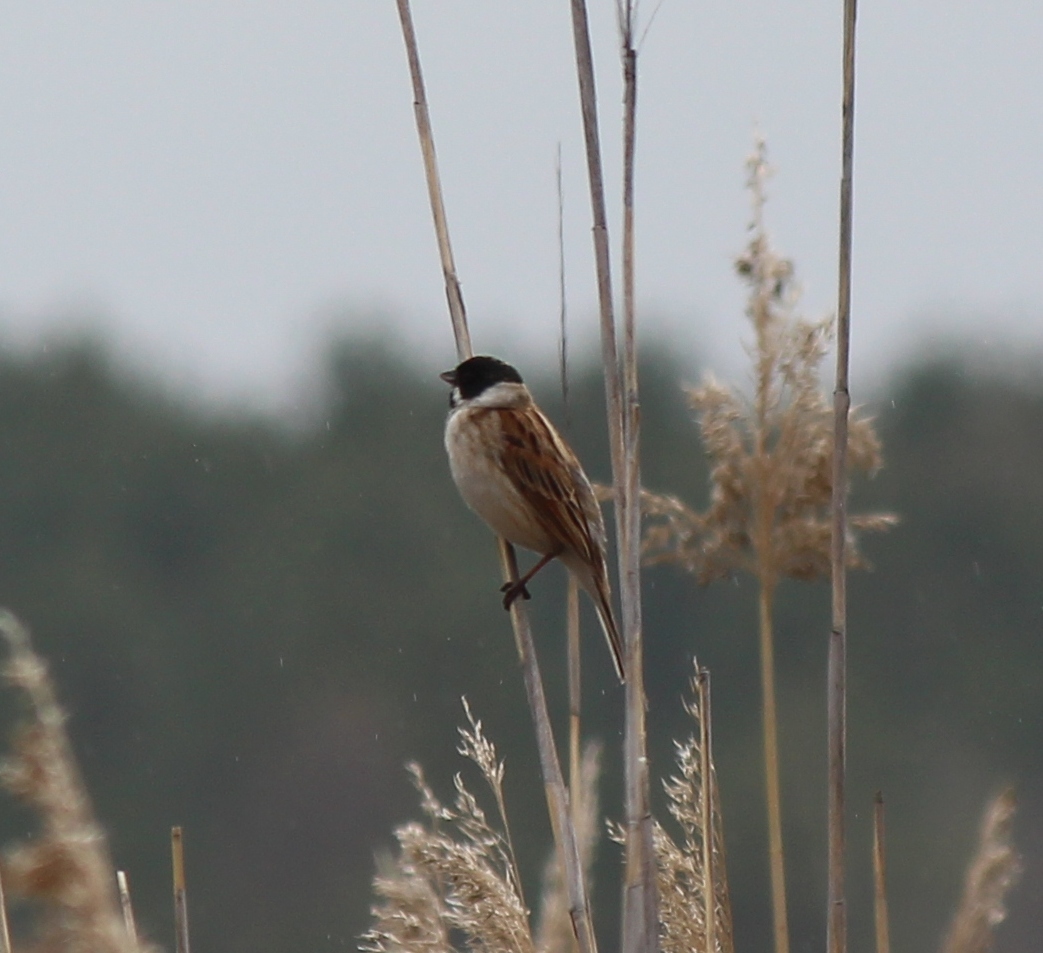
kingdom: Animalia
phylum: Chordata
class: Aves
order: Passeriformes
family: Emberizidae
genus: Emberiza
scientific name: Emberiza schoeniclus
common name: Reed bunting
